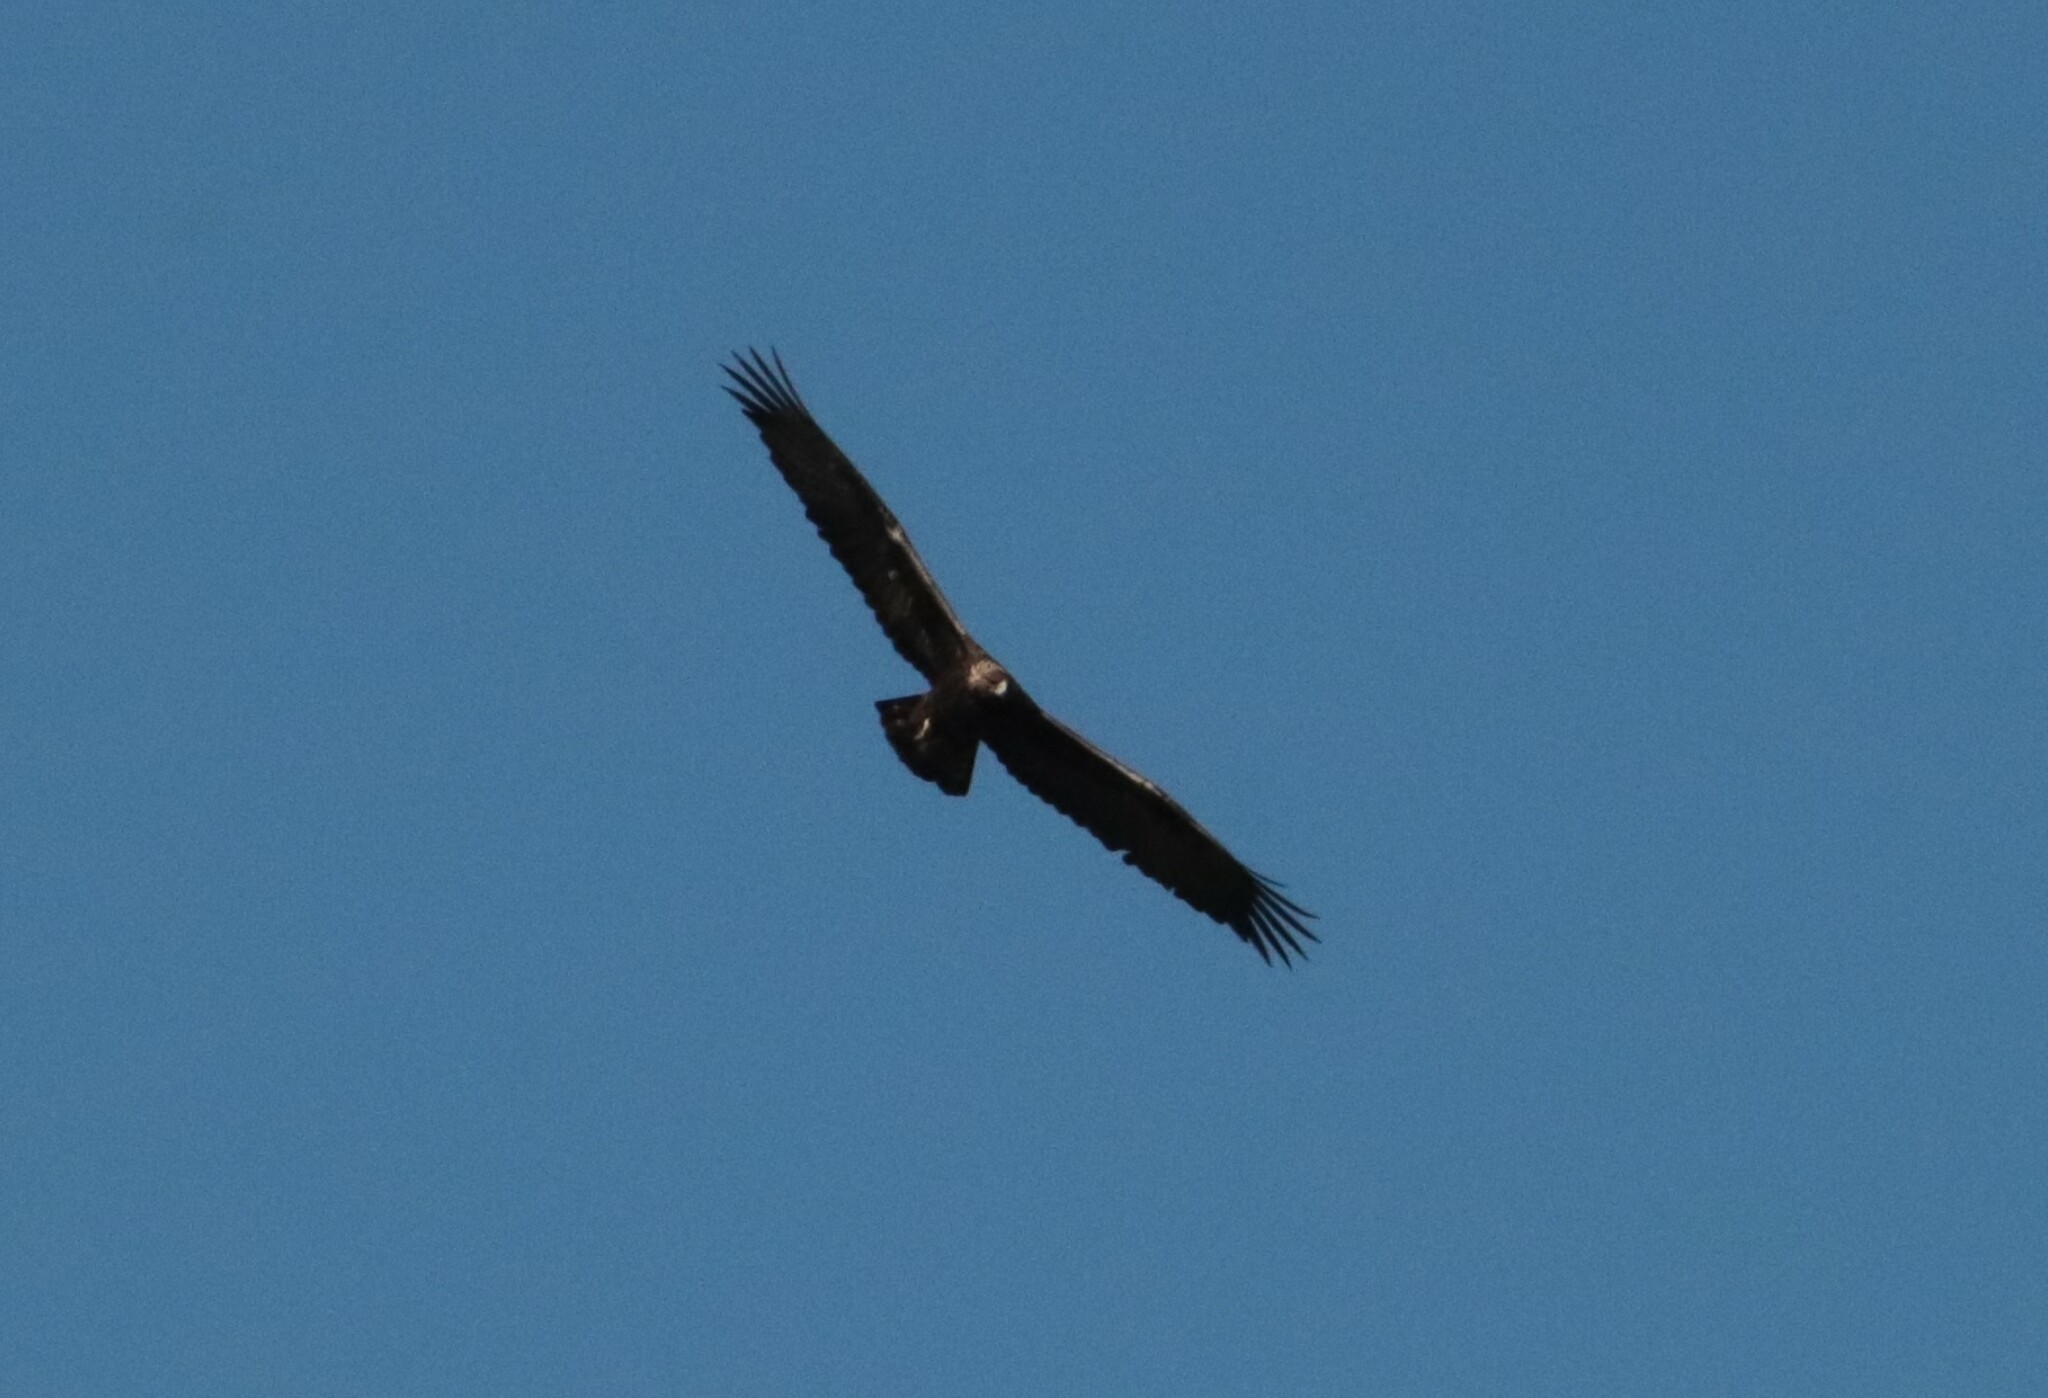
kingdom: Animalia
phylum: Chordata
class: Aves
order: Accipitriformes
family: Accipitridae
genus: Aquila
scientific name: Aquila chrysaetos
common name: Golden eagle
